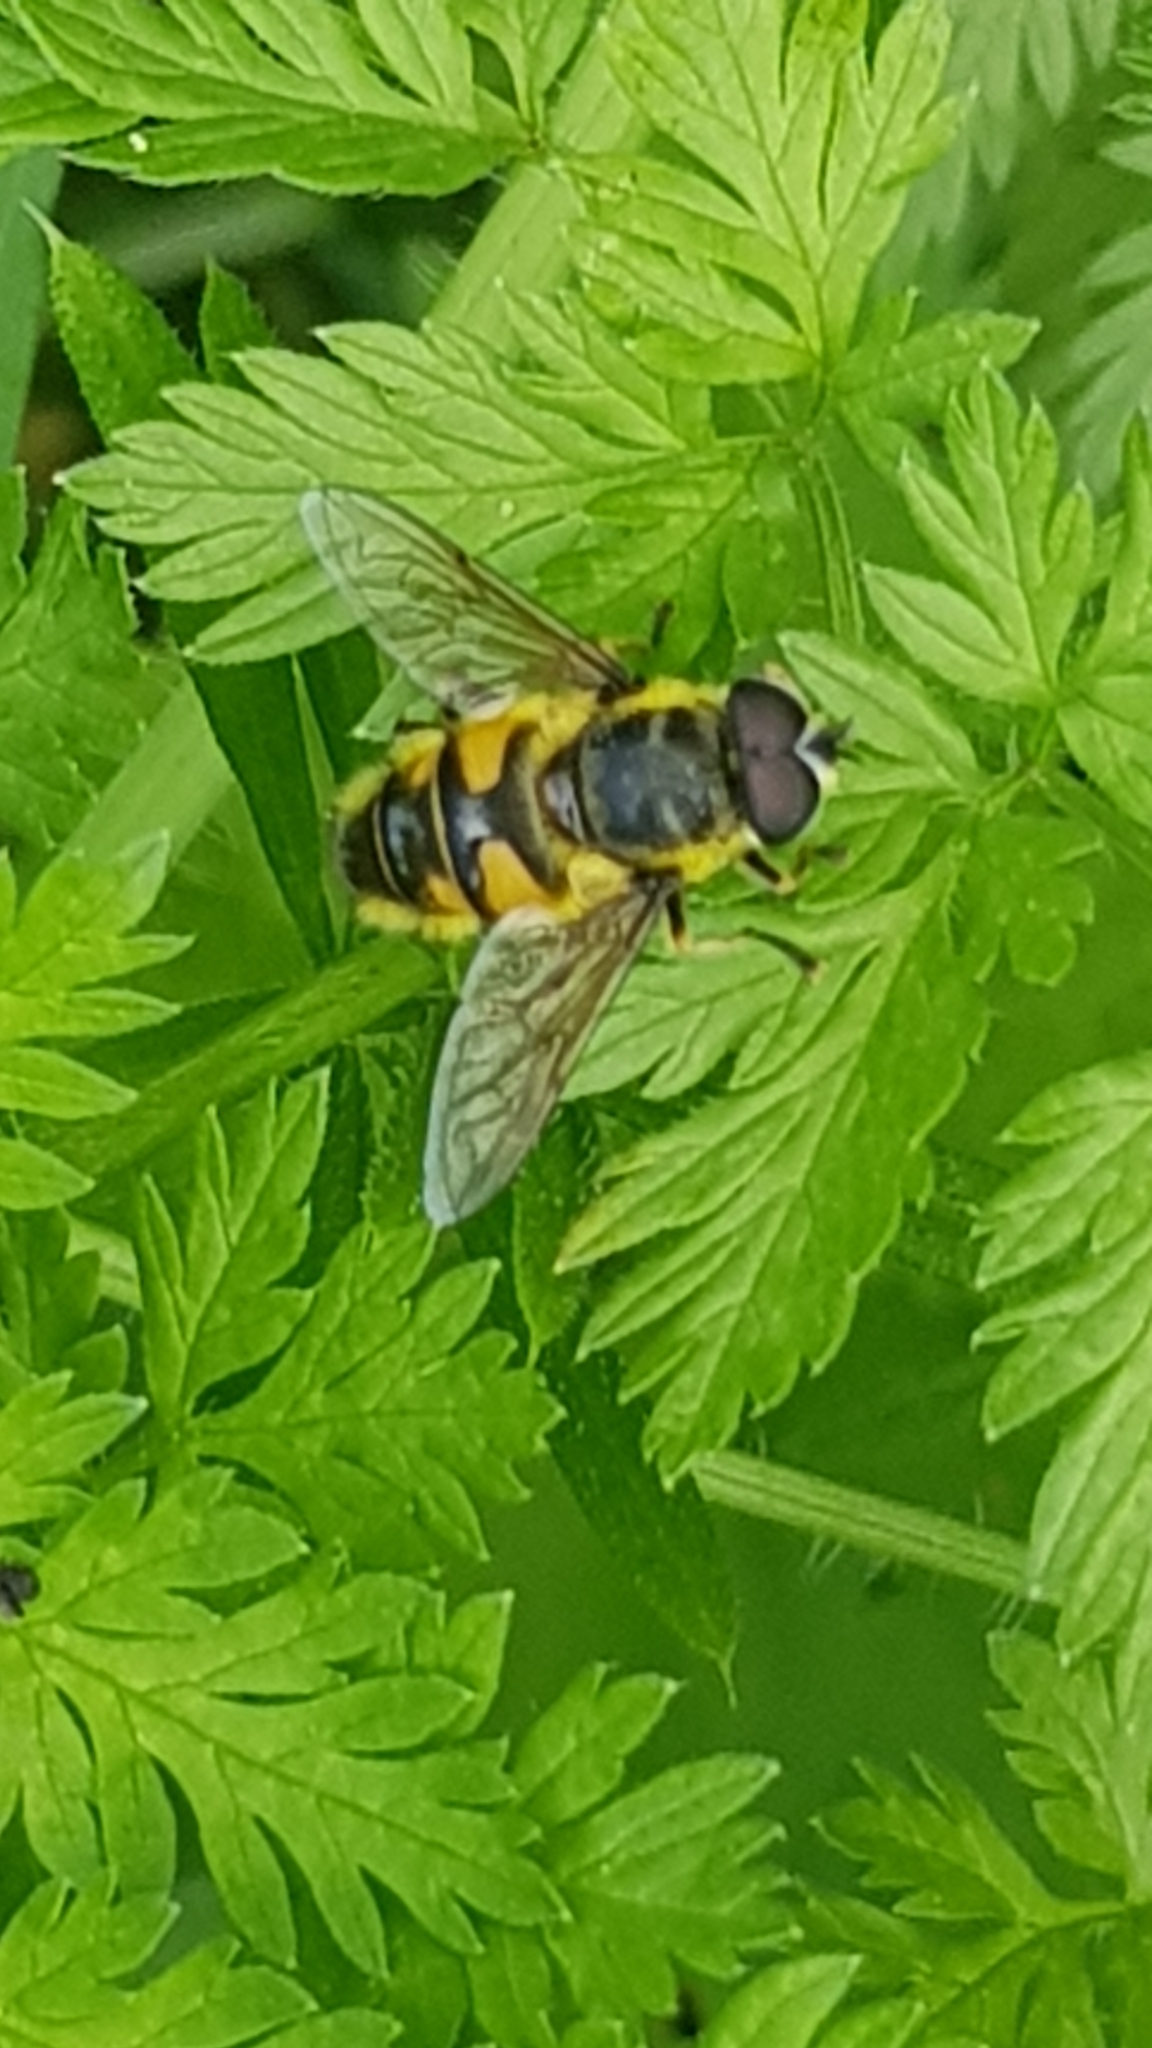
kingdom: Animalia
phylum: Arthropoda
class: Insecta
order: Diptera
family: Syrphidae
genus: Myathropa
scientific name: Myathropa florea
